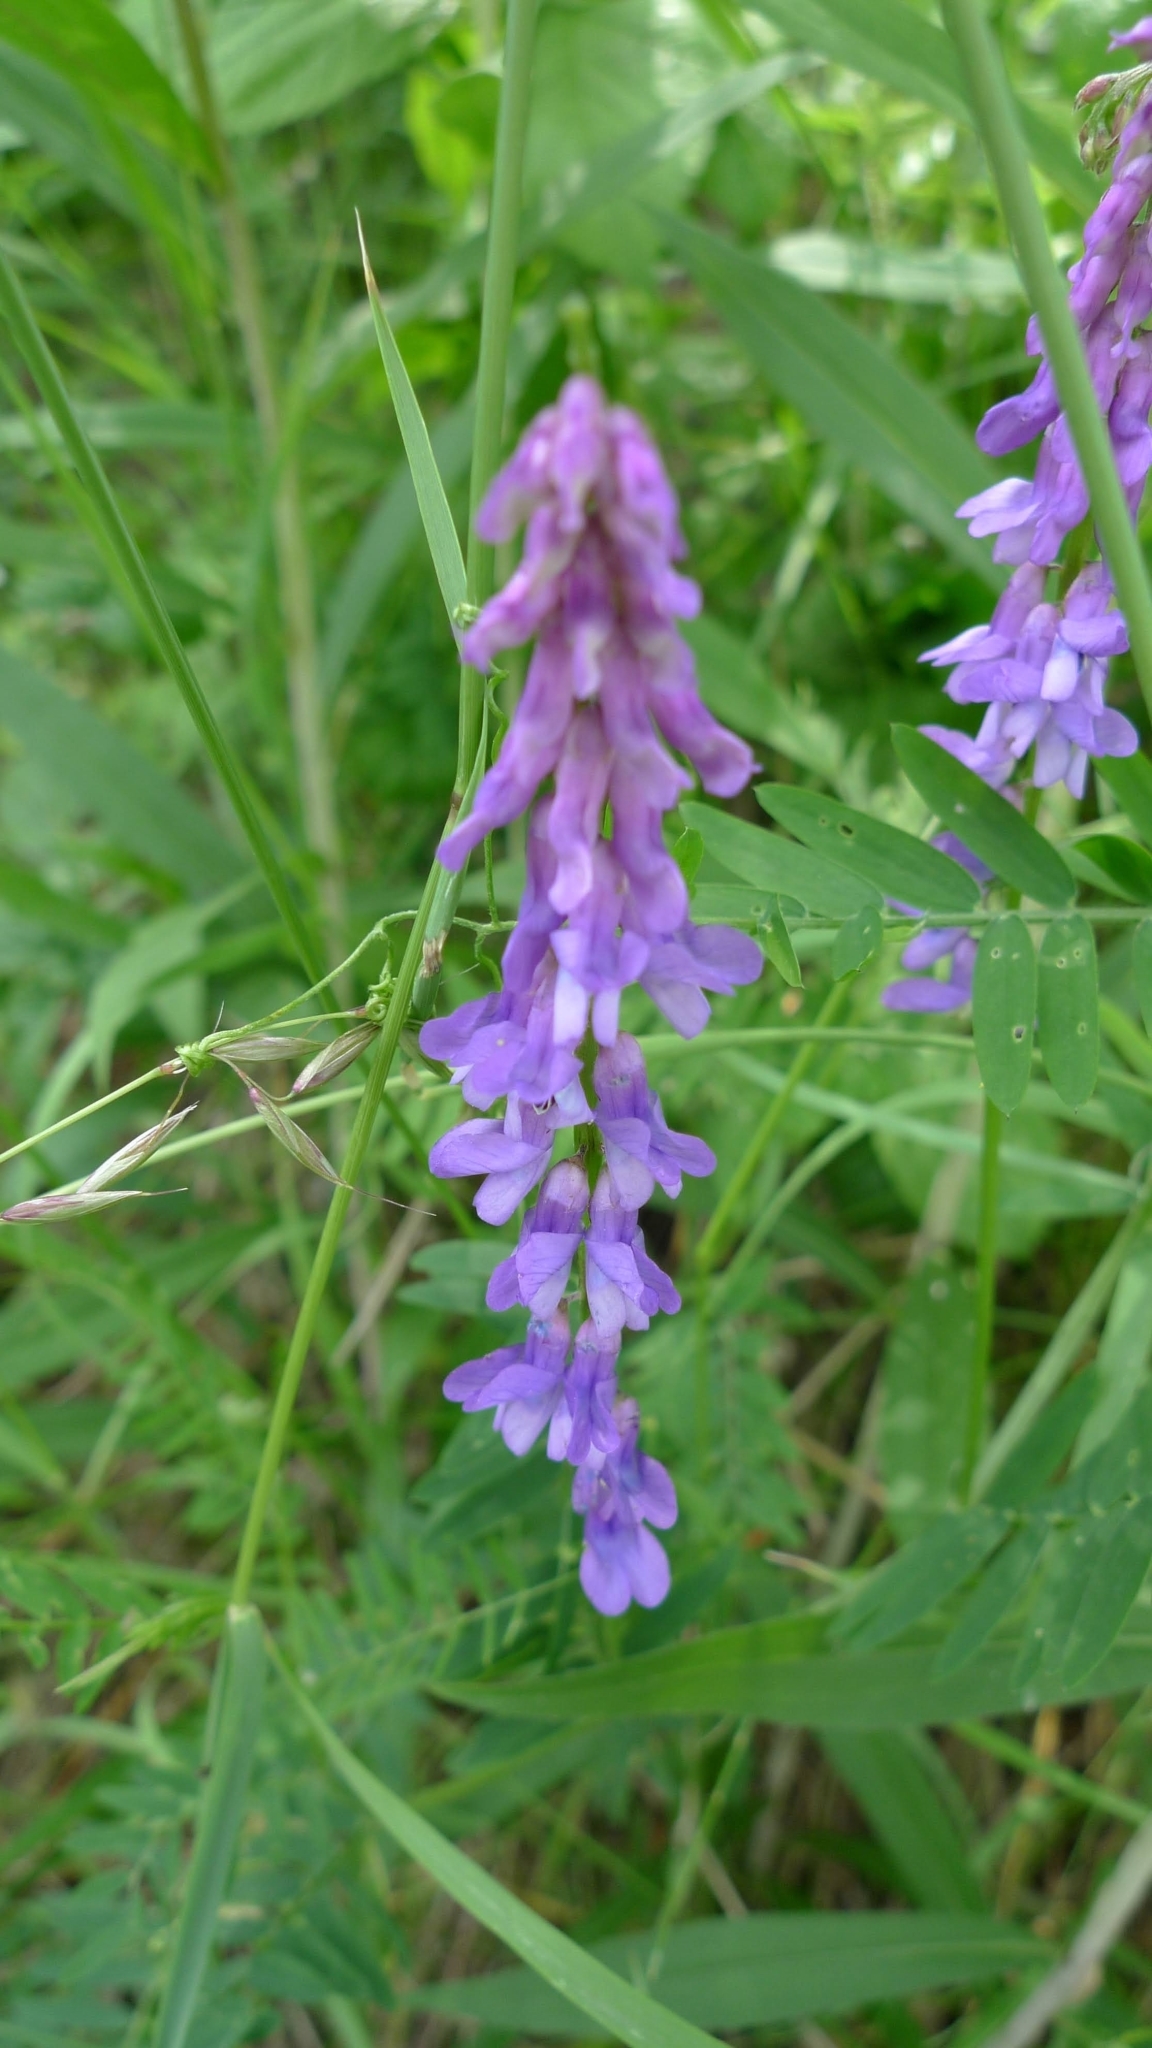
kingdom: Plantae
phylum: Tracheophyta
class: Magnoliopsida
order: Fabales
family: Fabaceae
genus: Vicia
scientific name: Vicia cracca
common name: Bird vetch
